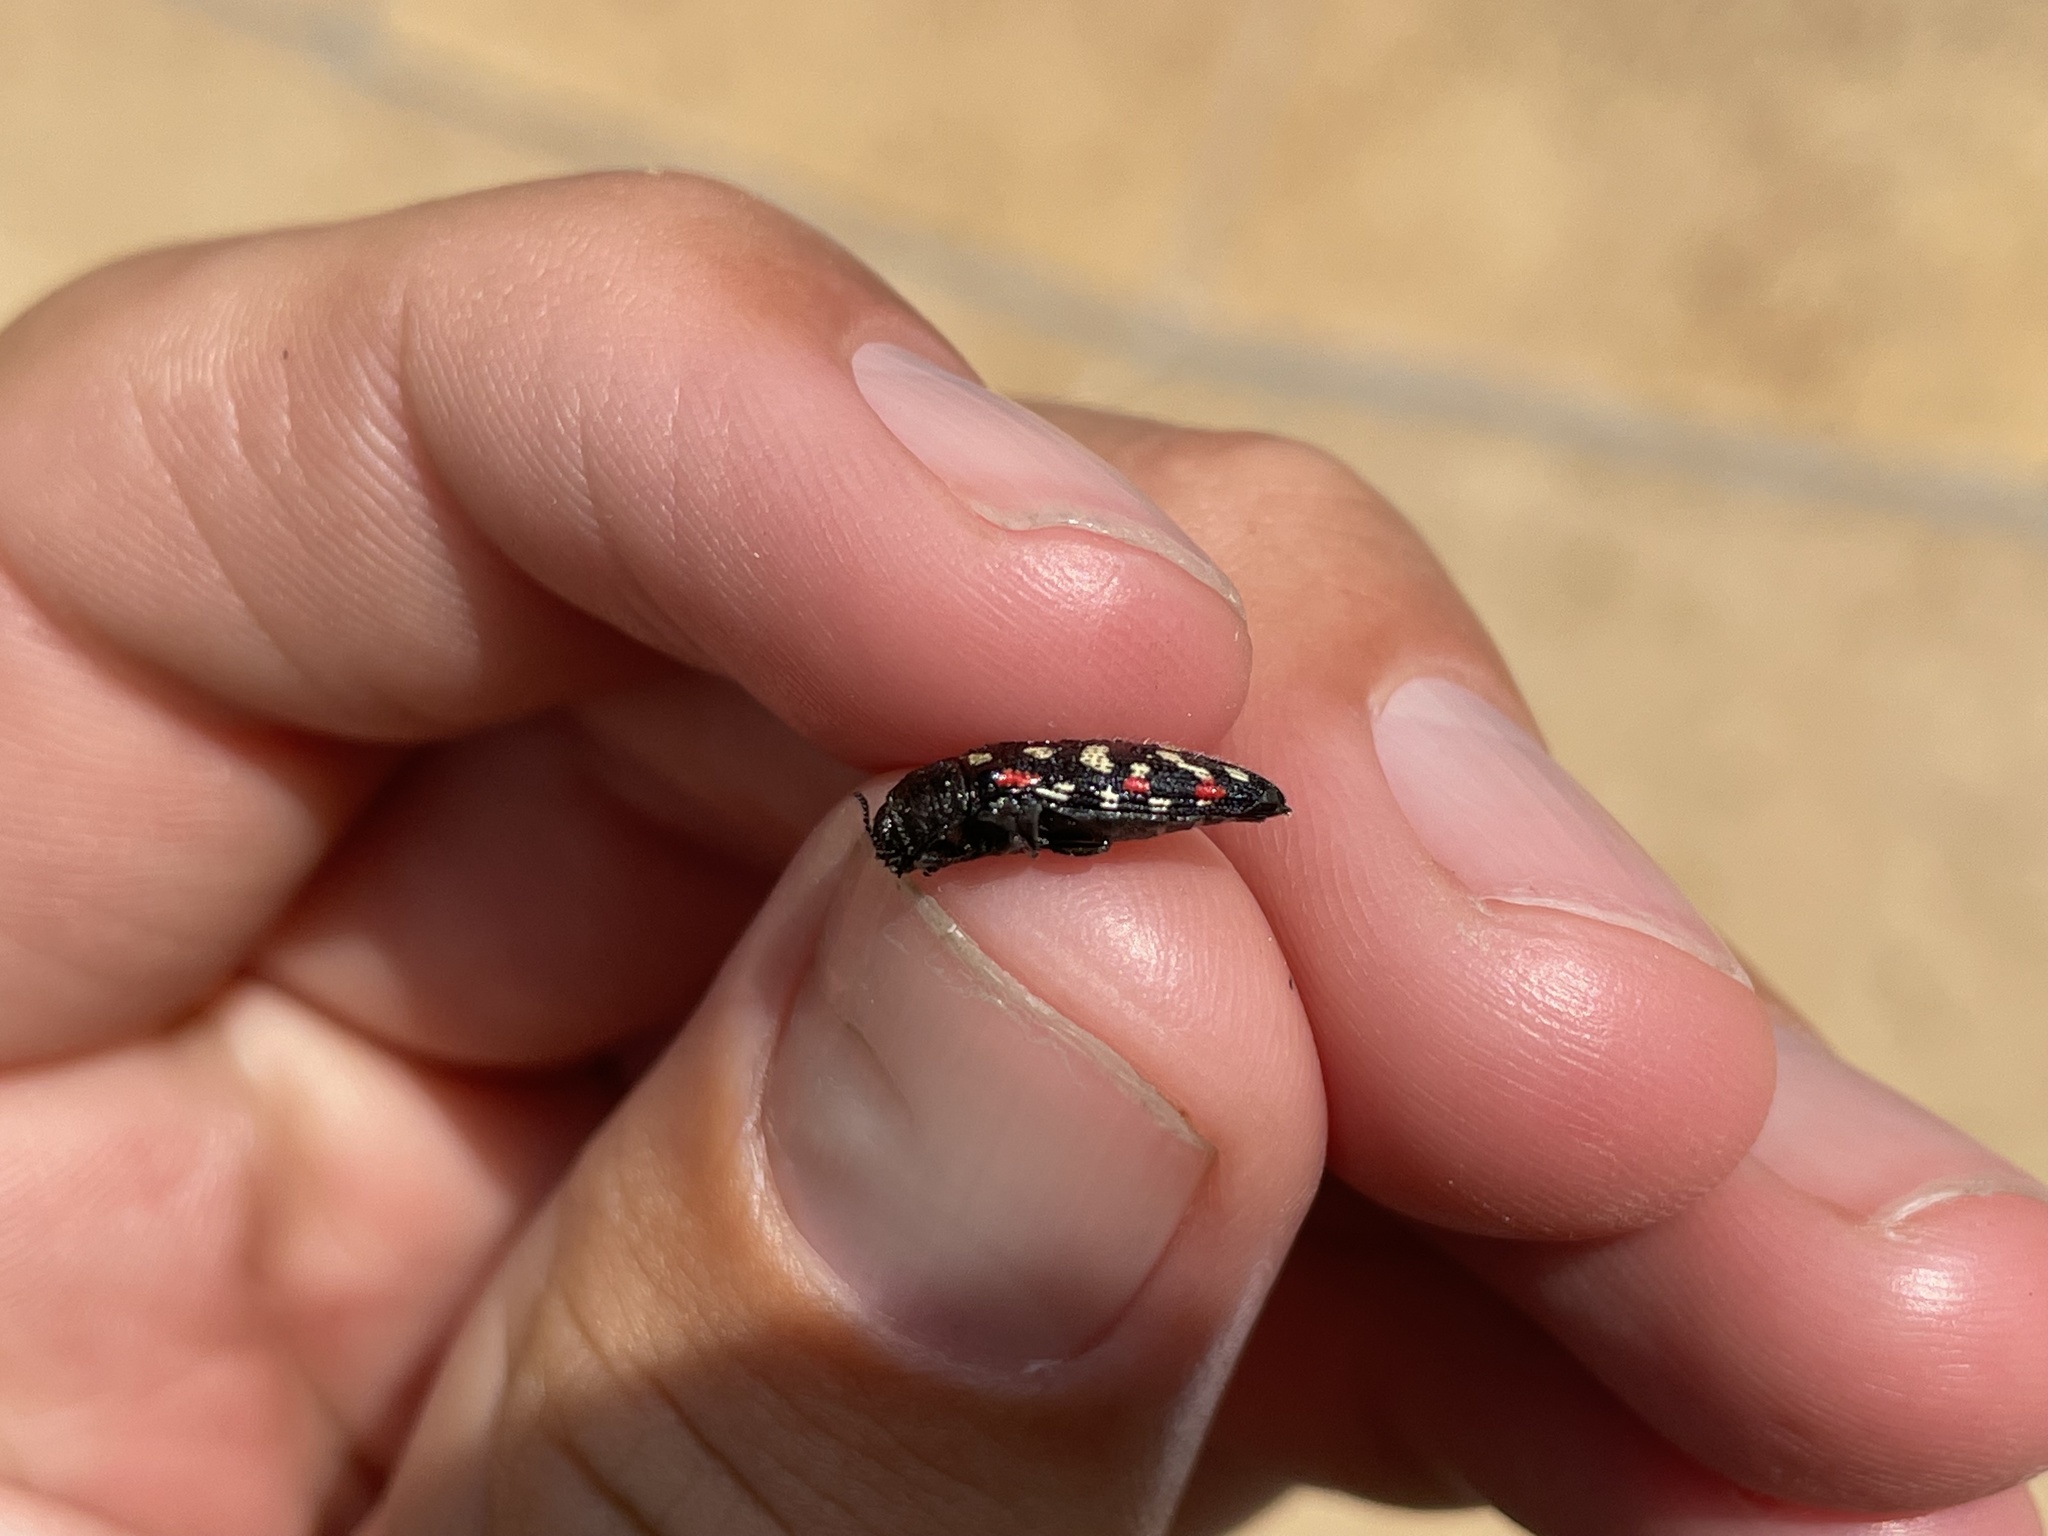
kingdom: Animalia
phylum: Arthropoda
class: Insecta
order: Coleoptera
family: Buprestidae
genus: Acmaeodera
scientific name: Acmaeodera gibbula
